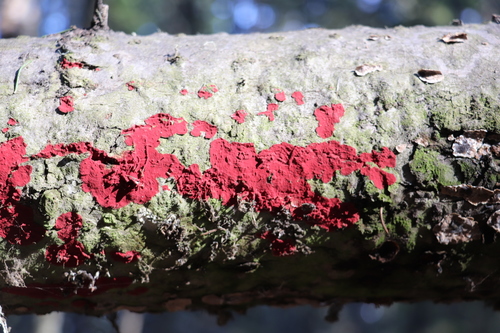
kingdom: Fungi
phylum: Basidiomycota
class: Agaricomycetes
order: Hymenochaetales
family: Hymenochaetaceae
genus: Hymenochaete
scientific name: Hymenochaete cruenta
